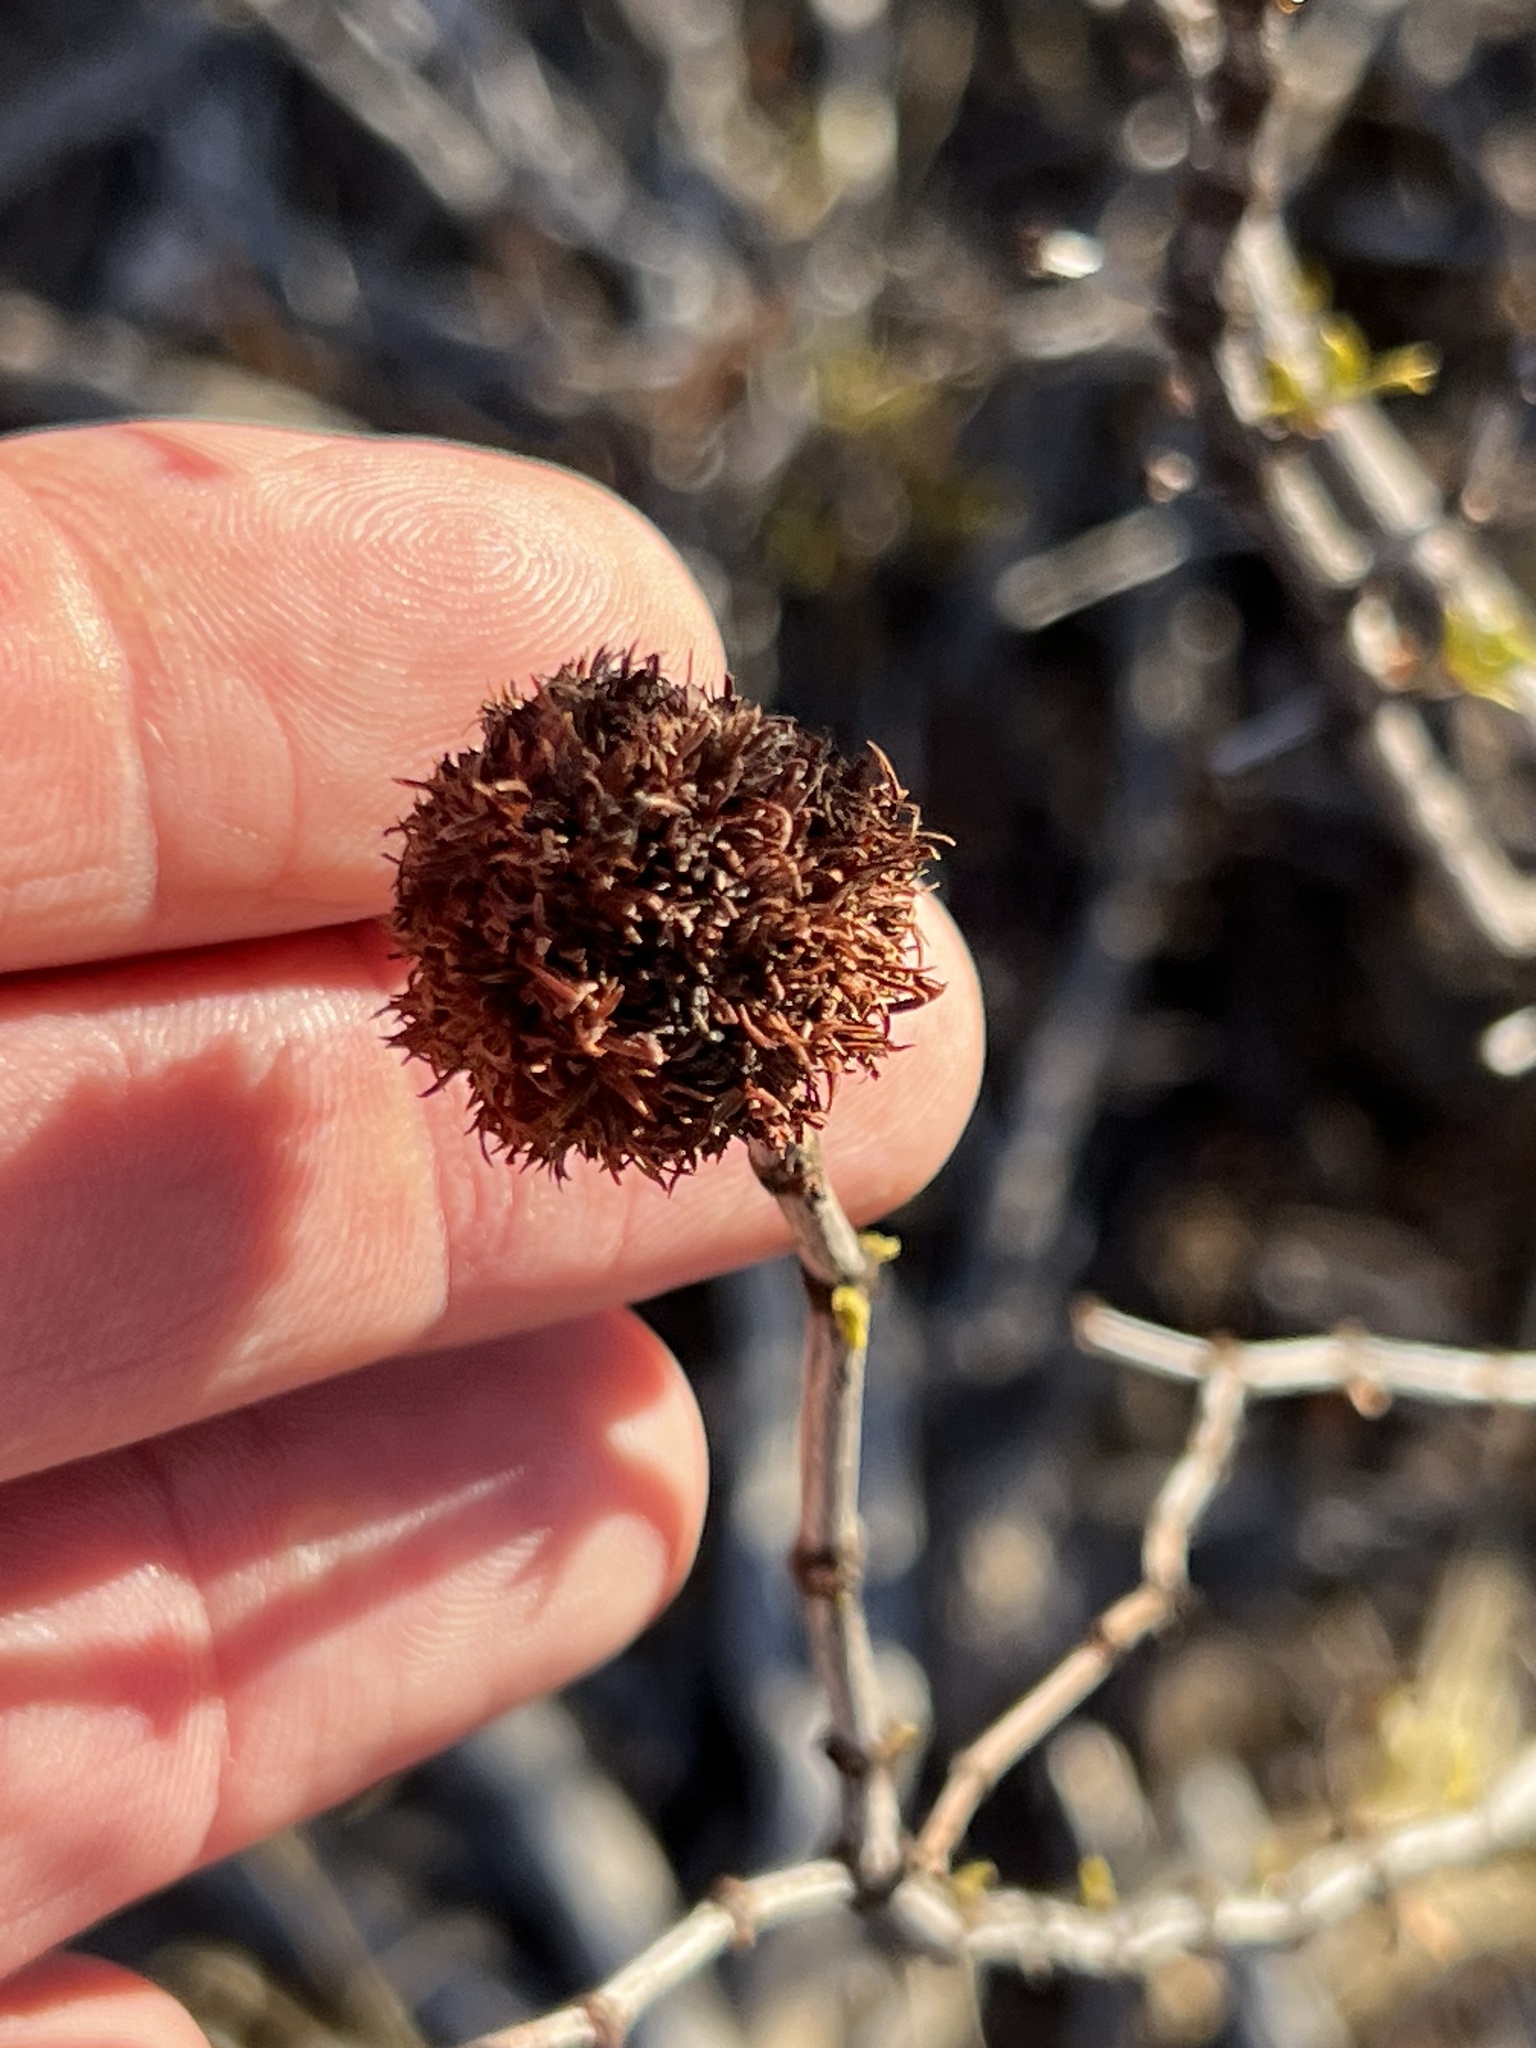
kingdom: Animalia
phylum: Arthropoda
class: Insecta
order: Diptera
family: Cecidomyiidae
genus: Asphondylia
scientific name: Asphondylia auripila
